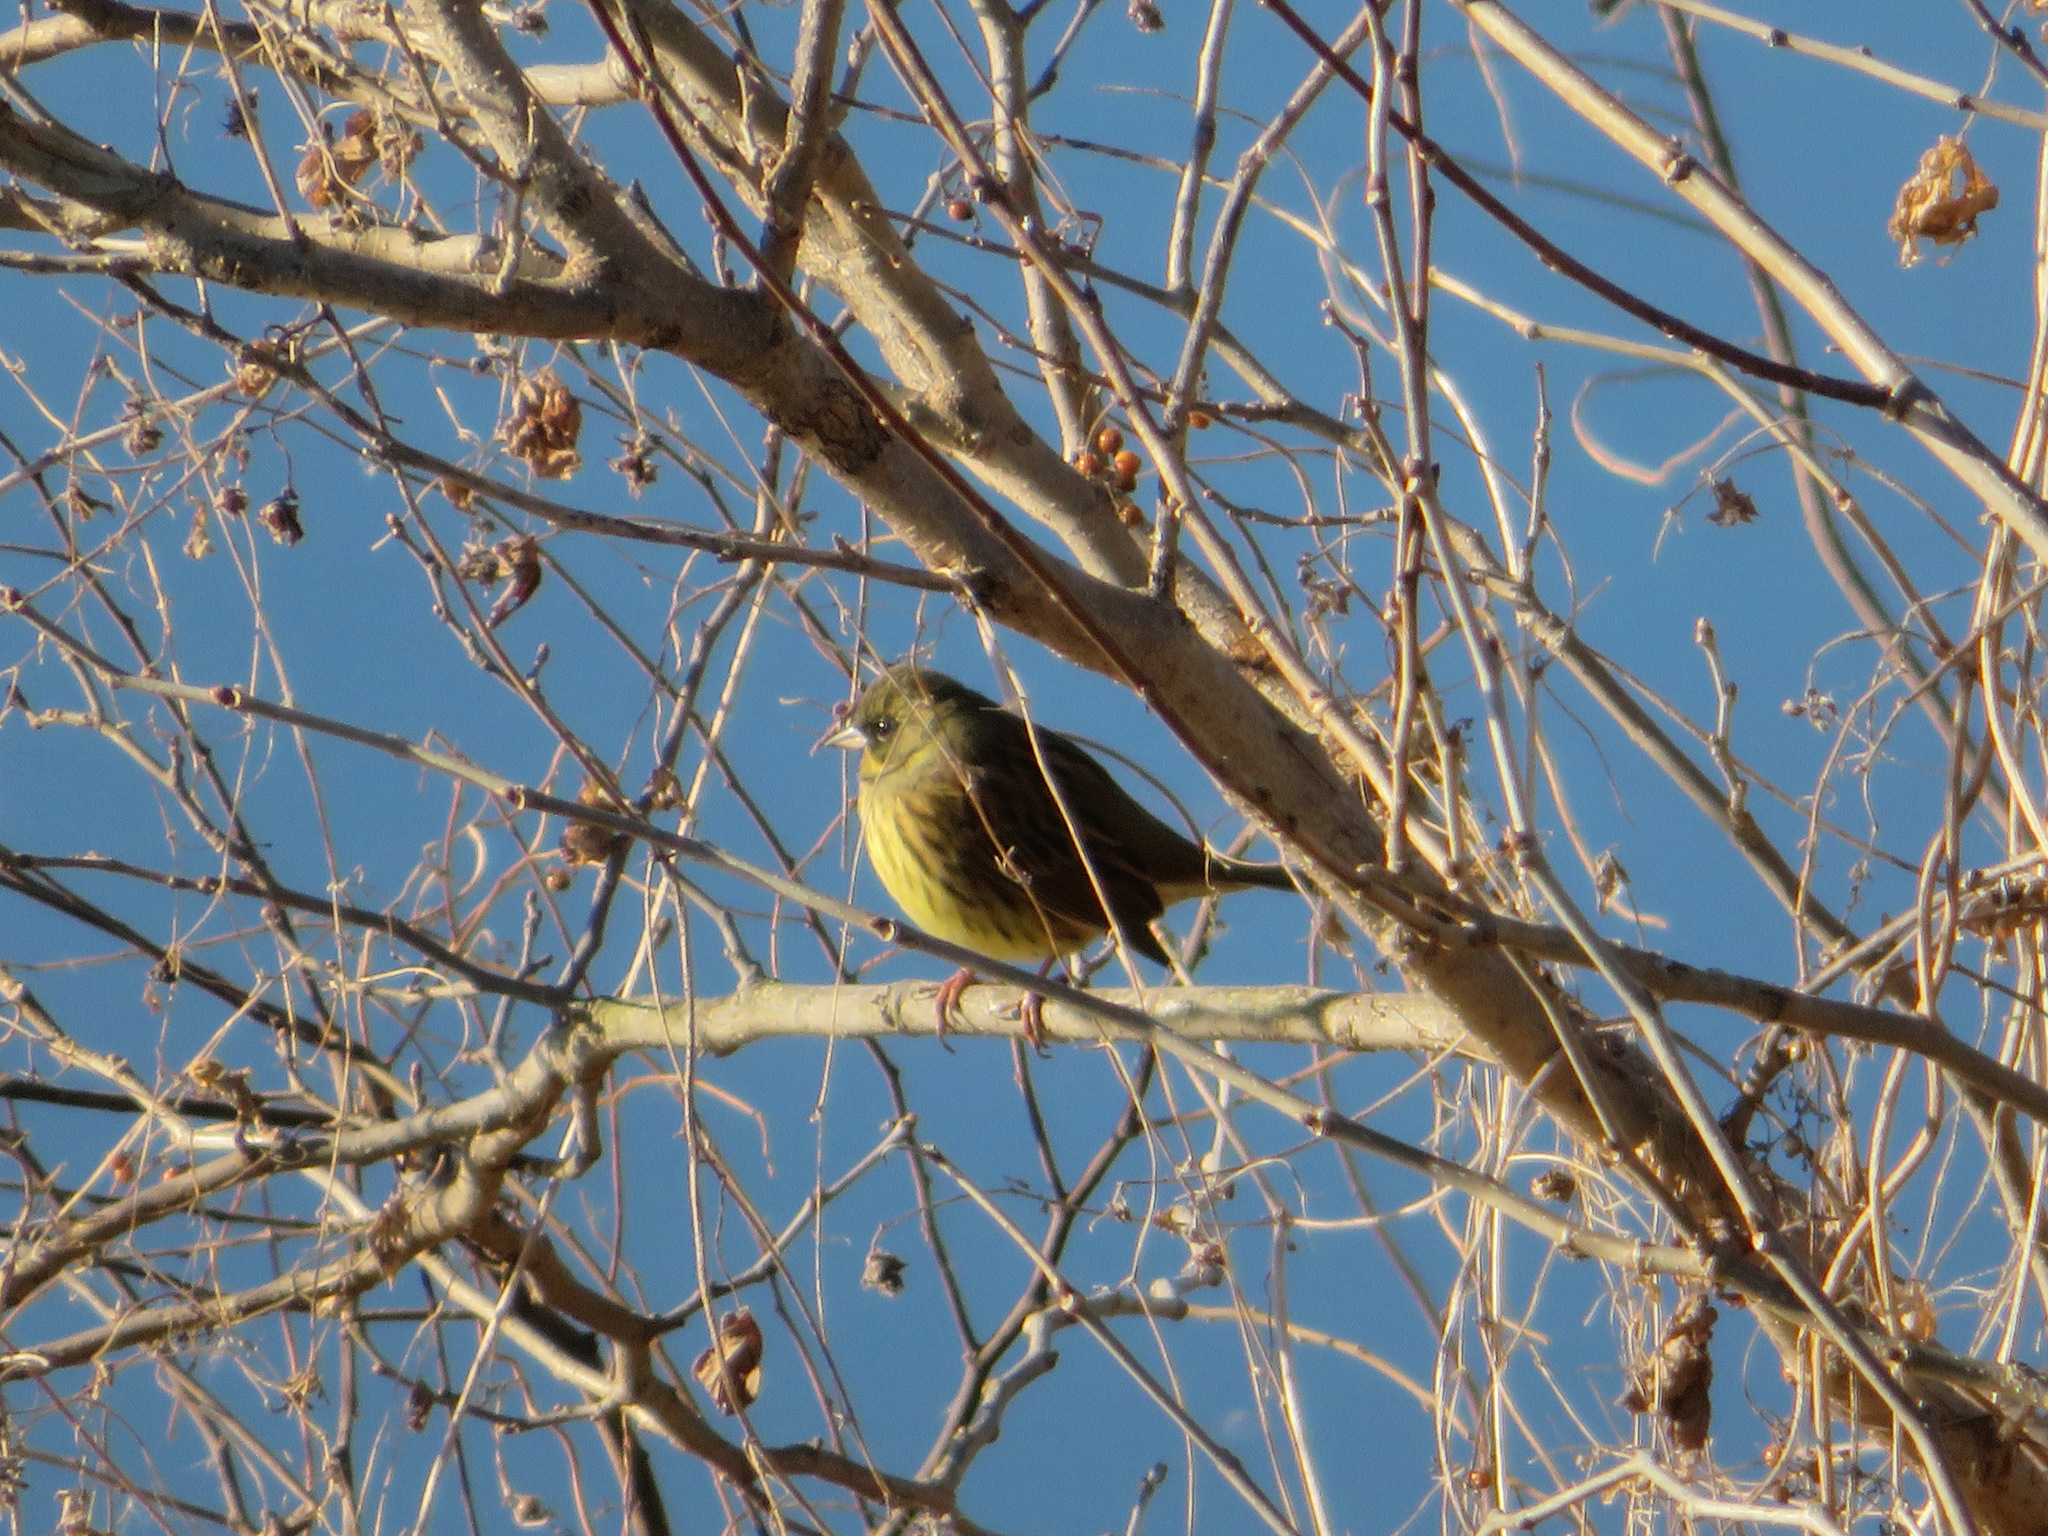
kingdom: Animalia
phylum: Chordata
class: Aves
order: Passeriformes
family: Emberizidae
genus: Emberiza
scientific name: Emberiza personata
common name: Masked bunting
